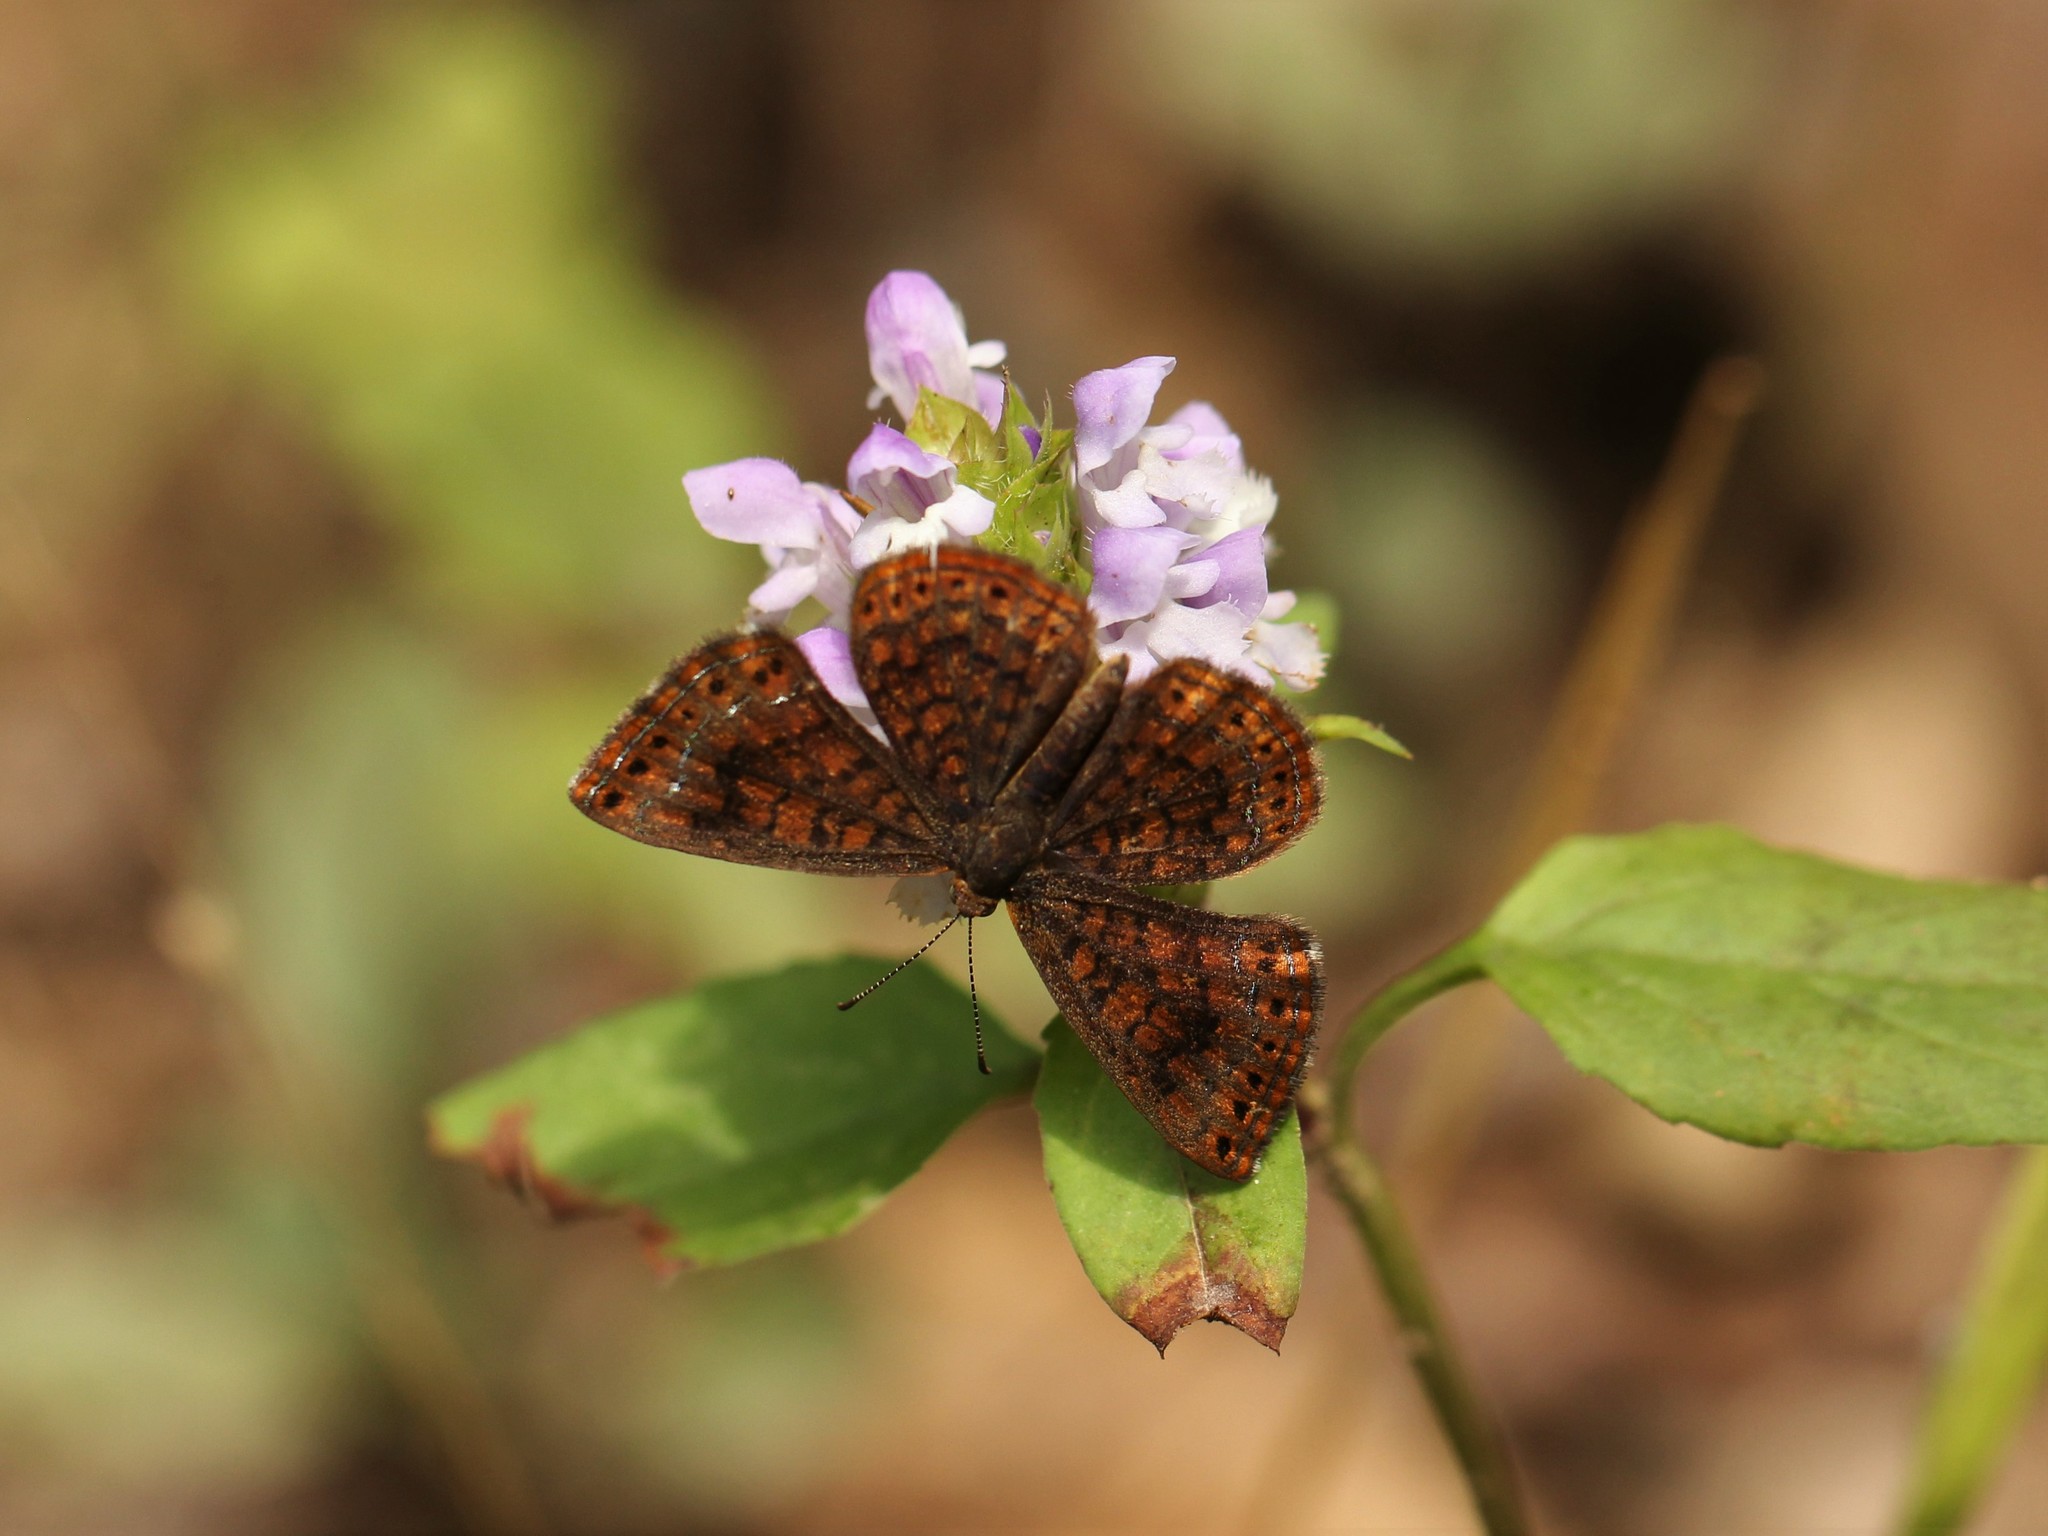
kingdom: Animalia
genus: Calephelis
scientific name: Calephelis borealis
